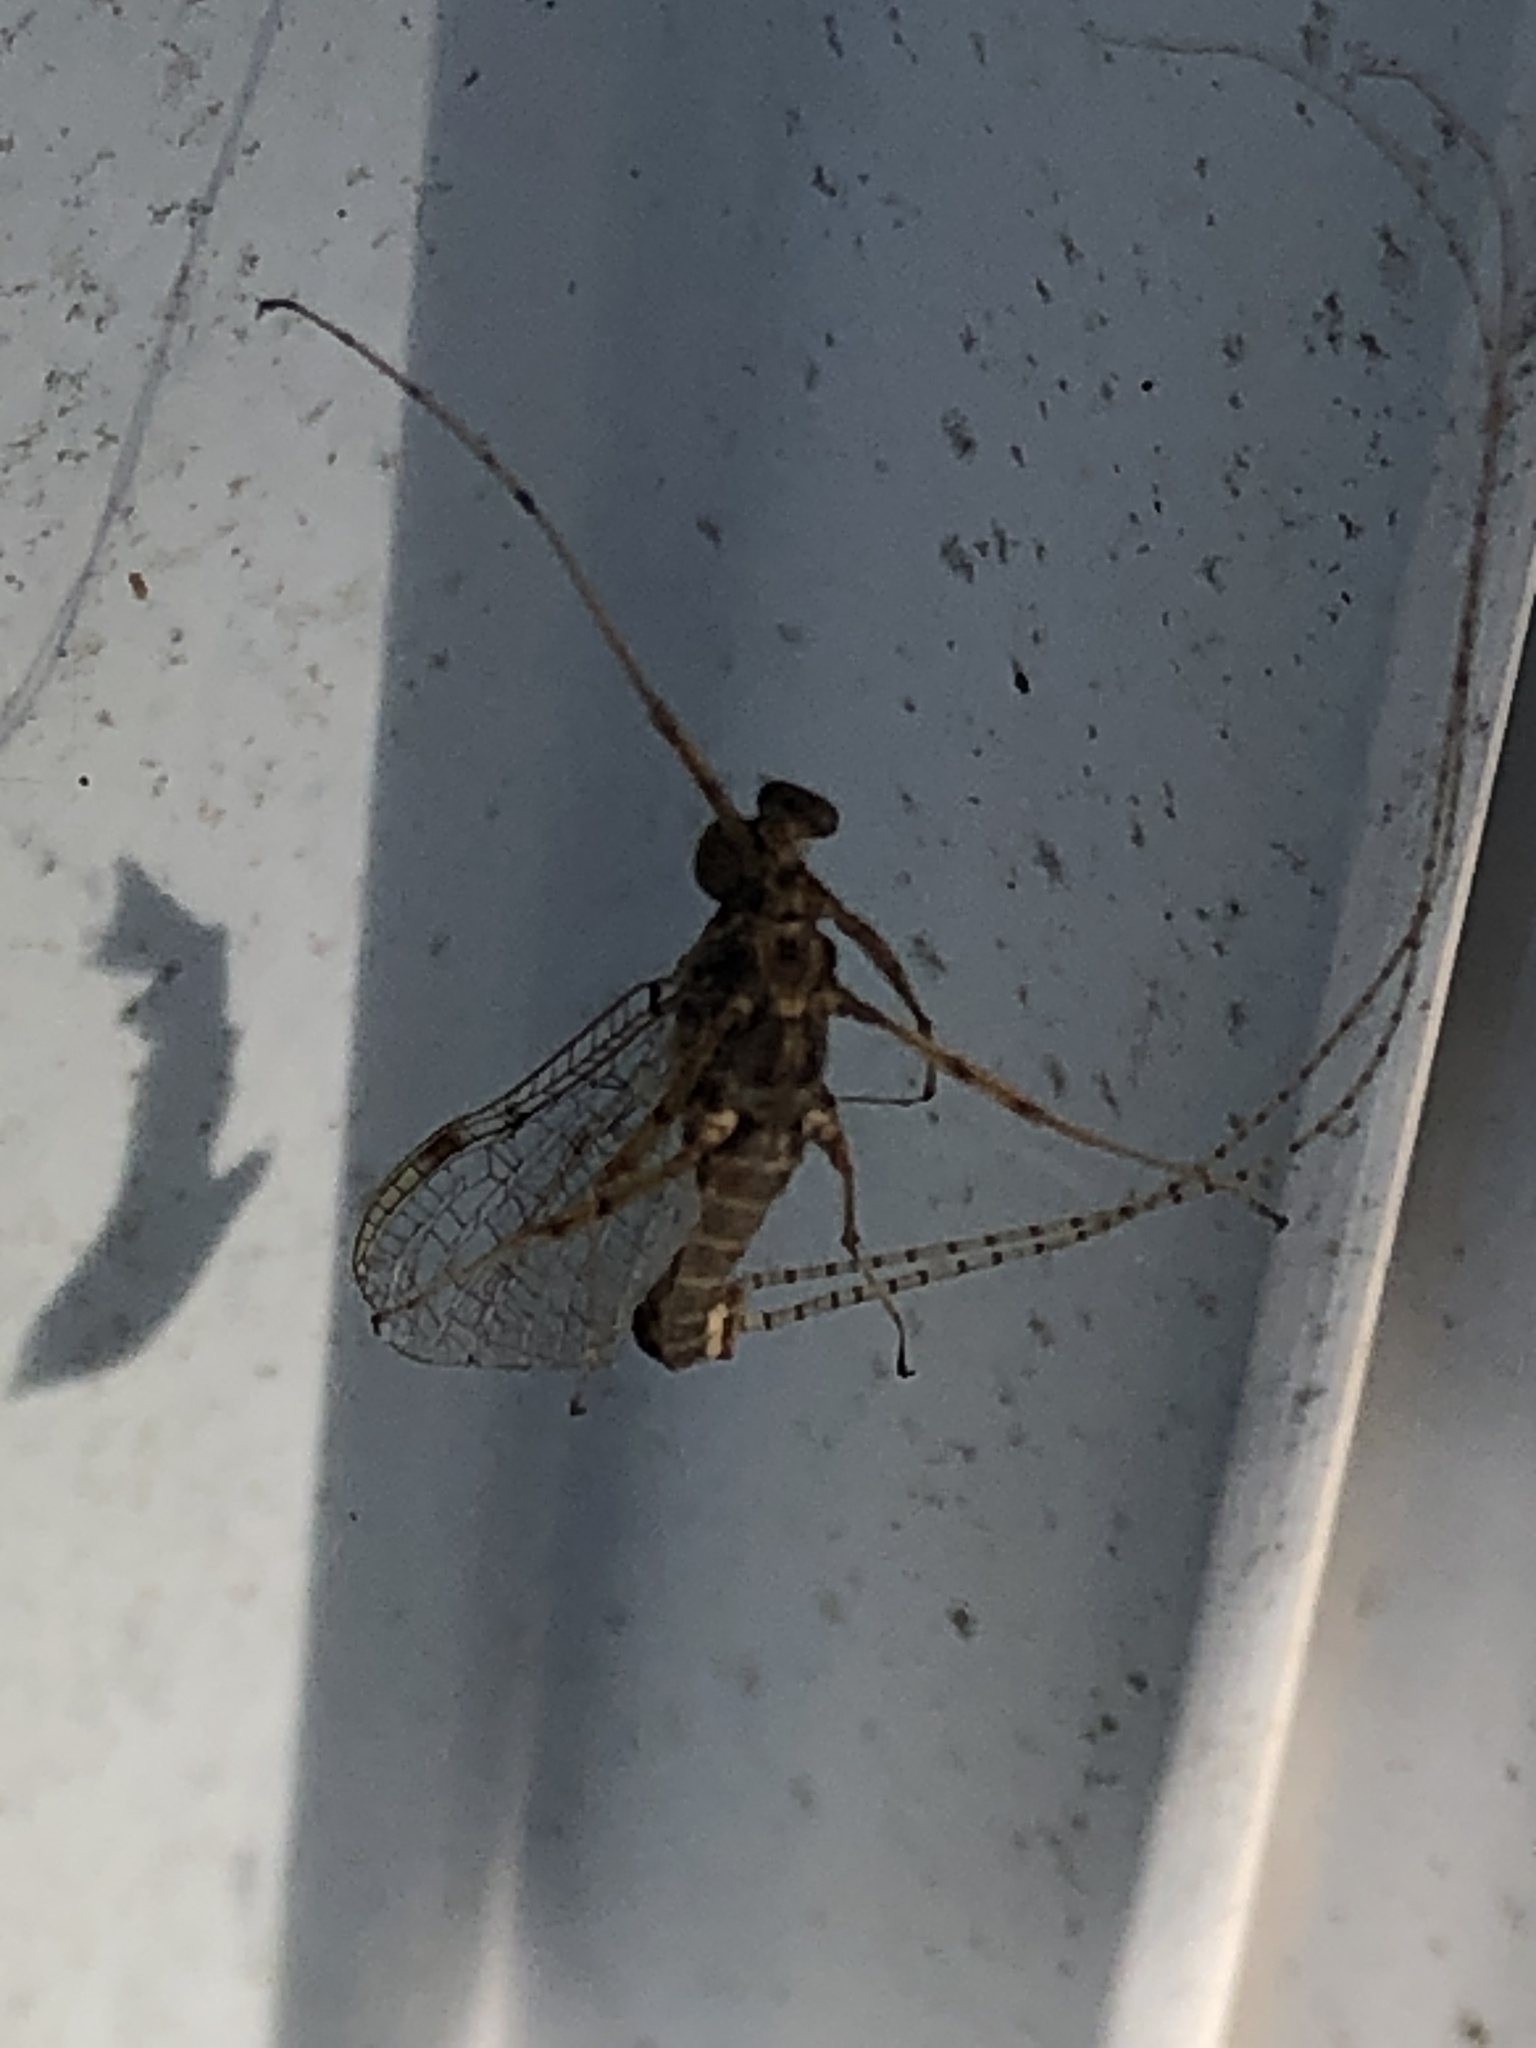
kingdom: Animalia
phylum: Arthropoda
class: Insecta
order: Ephemeroptera
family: Heptageniidae
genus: Stenonema
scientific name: Stenonema femoratum
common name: Dark cahill
